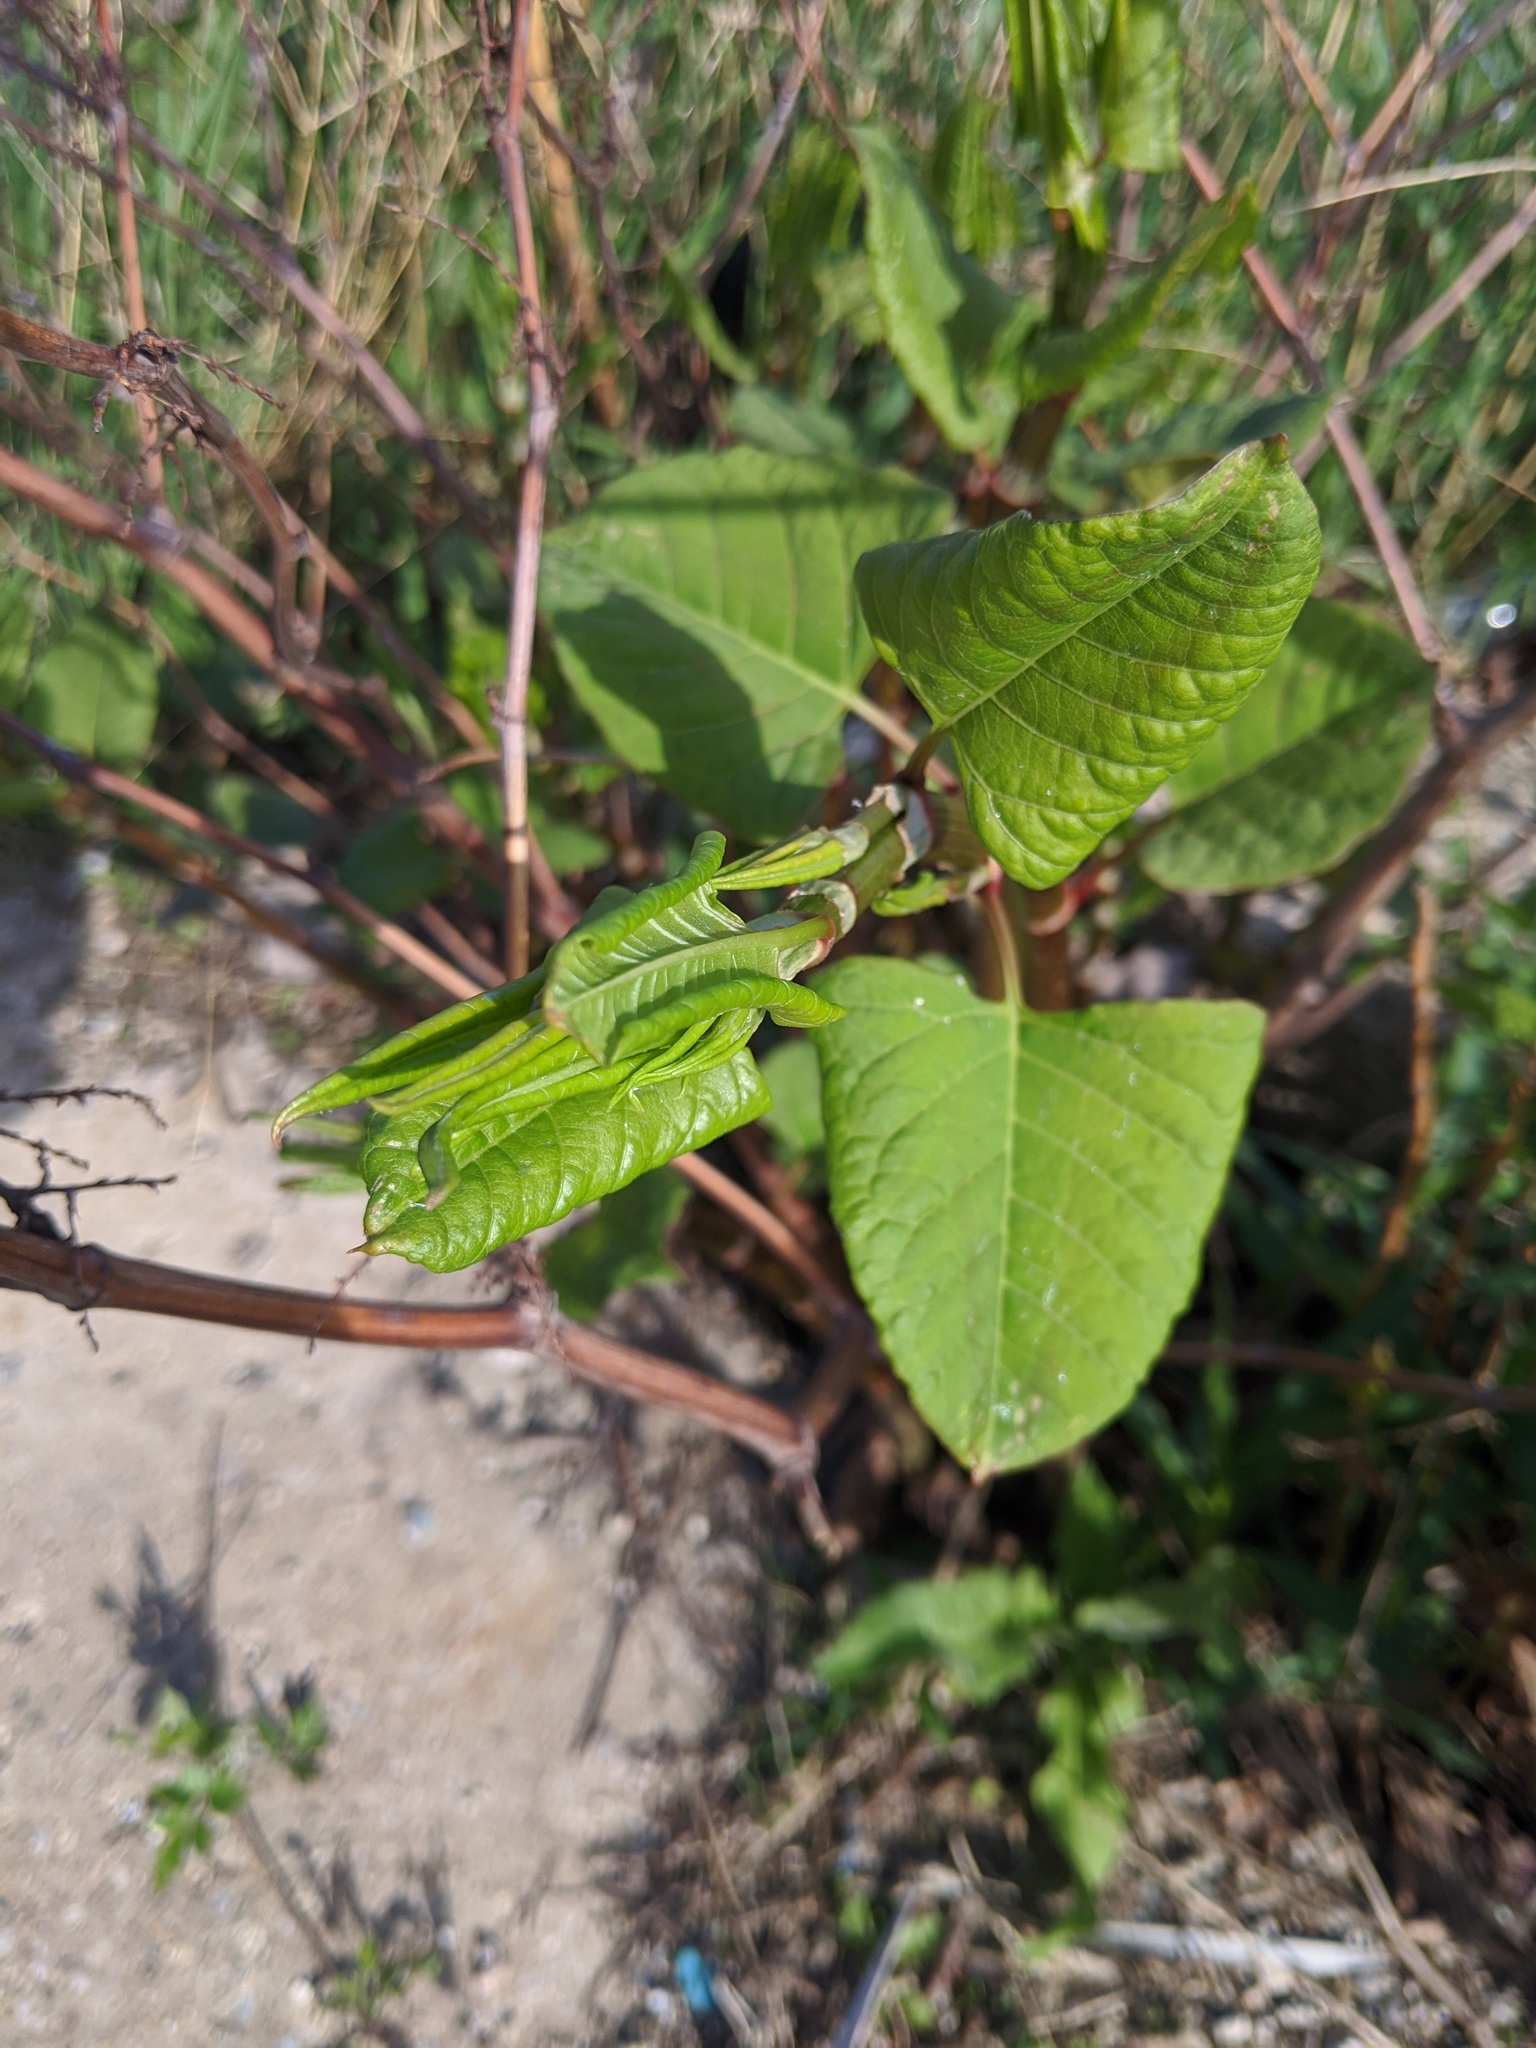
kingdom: Plantae
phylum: Tracheophyta
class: Magnoliopsida
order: Caryophyllales
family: Polygonaceae
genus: Reynoutria
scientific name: Reynoutria japonica
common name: Japanese knotweed
